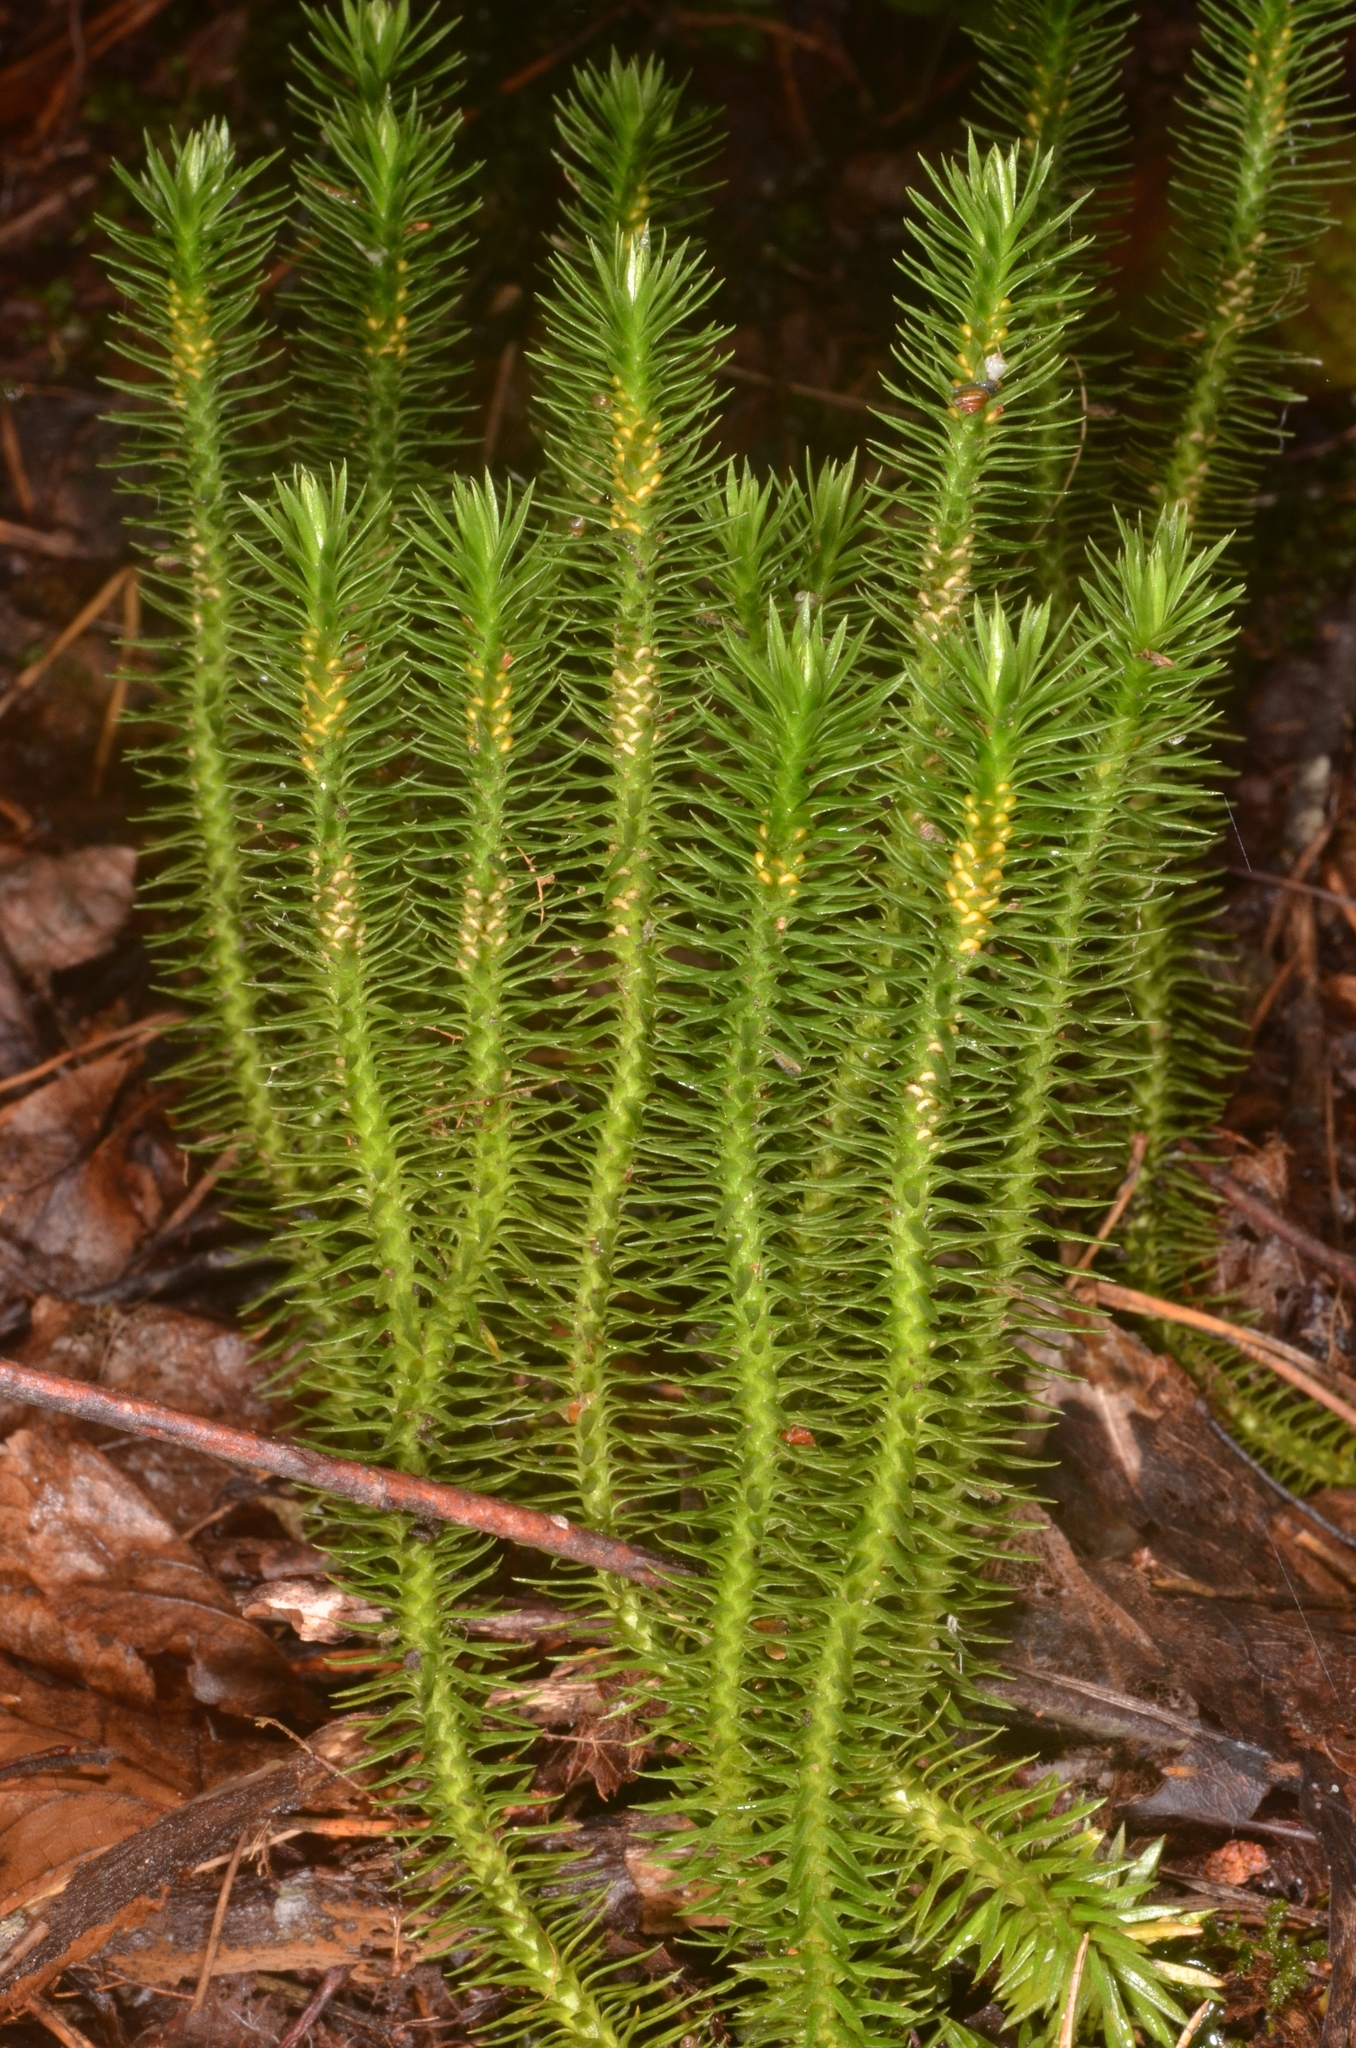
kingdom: Plantae
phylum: Tracheophyta
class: Lycopodiopsida
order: Lycopodiales
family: Lycopodiaceae
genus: Huperzia
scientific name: Huperzia selago
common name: Northern firmoss
